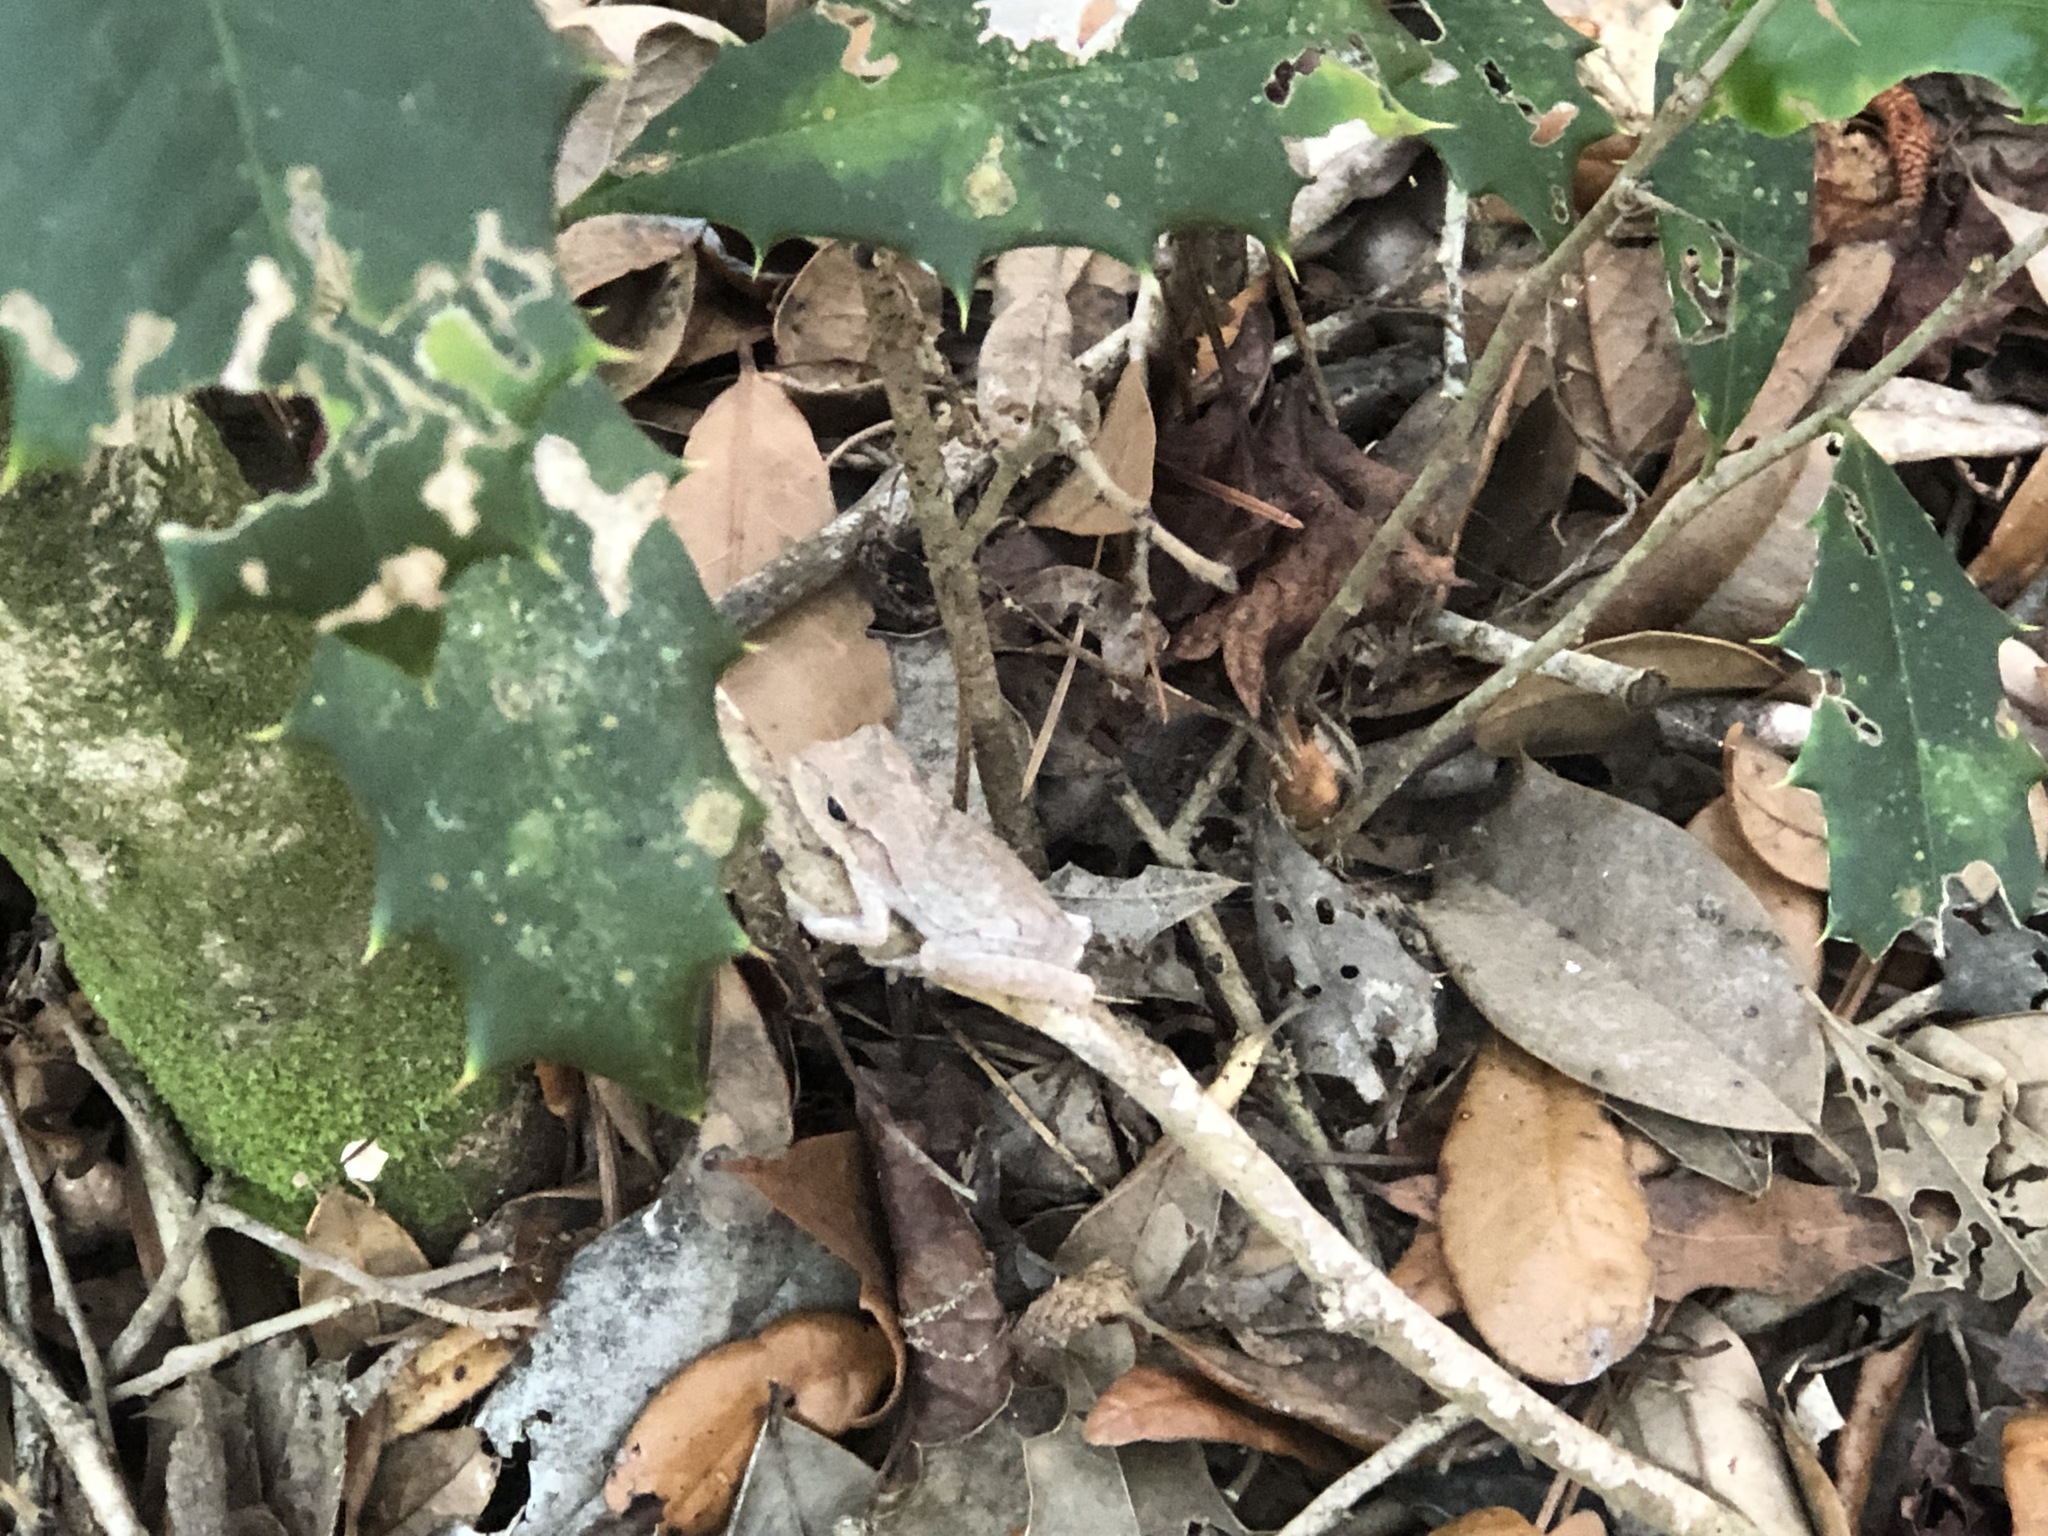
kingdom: Animalia
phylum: Chordata
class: Amphibia
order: Anura
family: Hylidae
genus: Hyla
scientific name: Hyla femoralis
